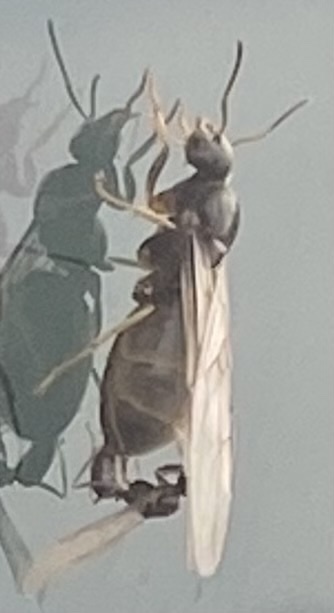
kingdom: Animalia
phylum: Arthropoda
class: Insecta
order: Hymenoptera
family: Formicidae
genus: Lasius
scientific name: Lasius neoniger
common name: Turfgrass ant
